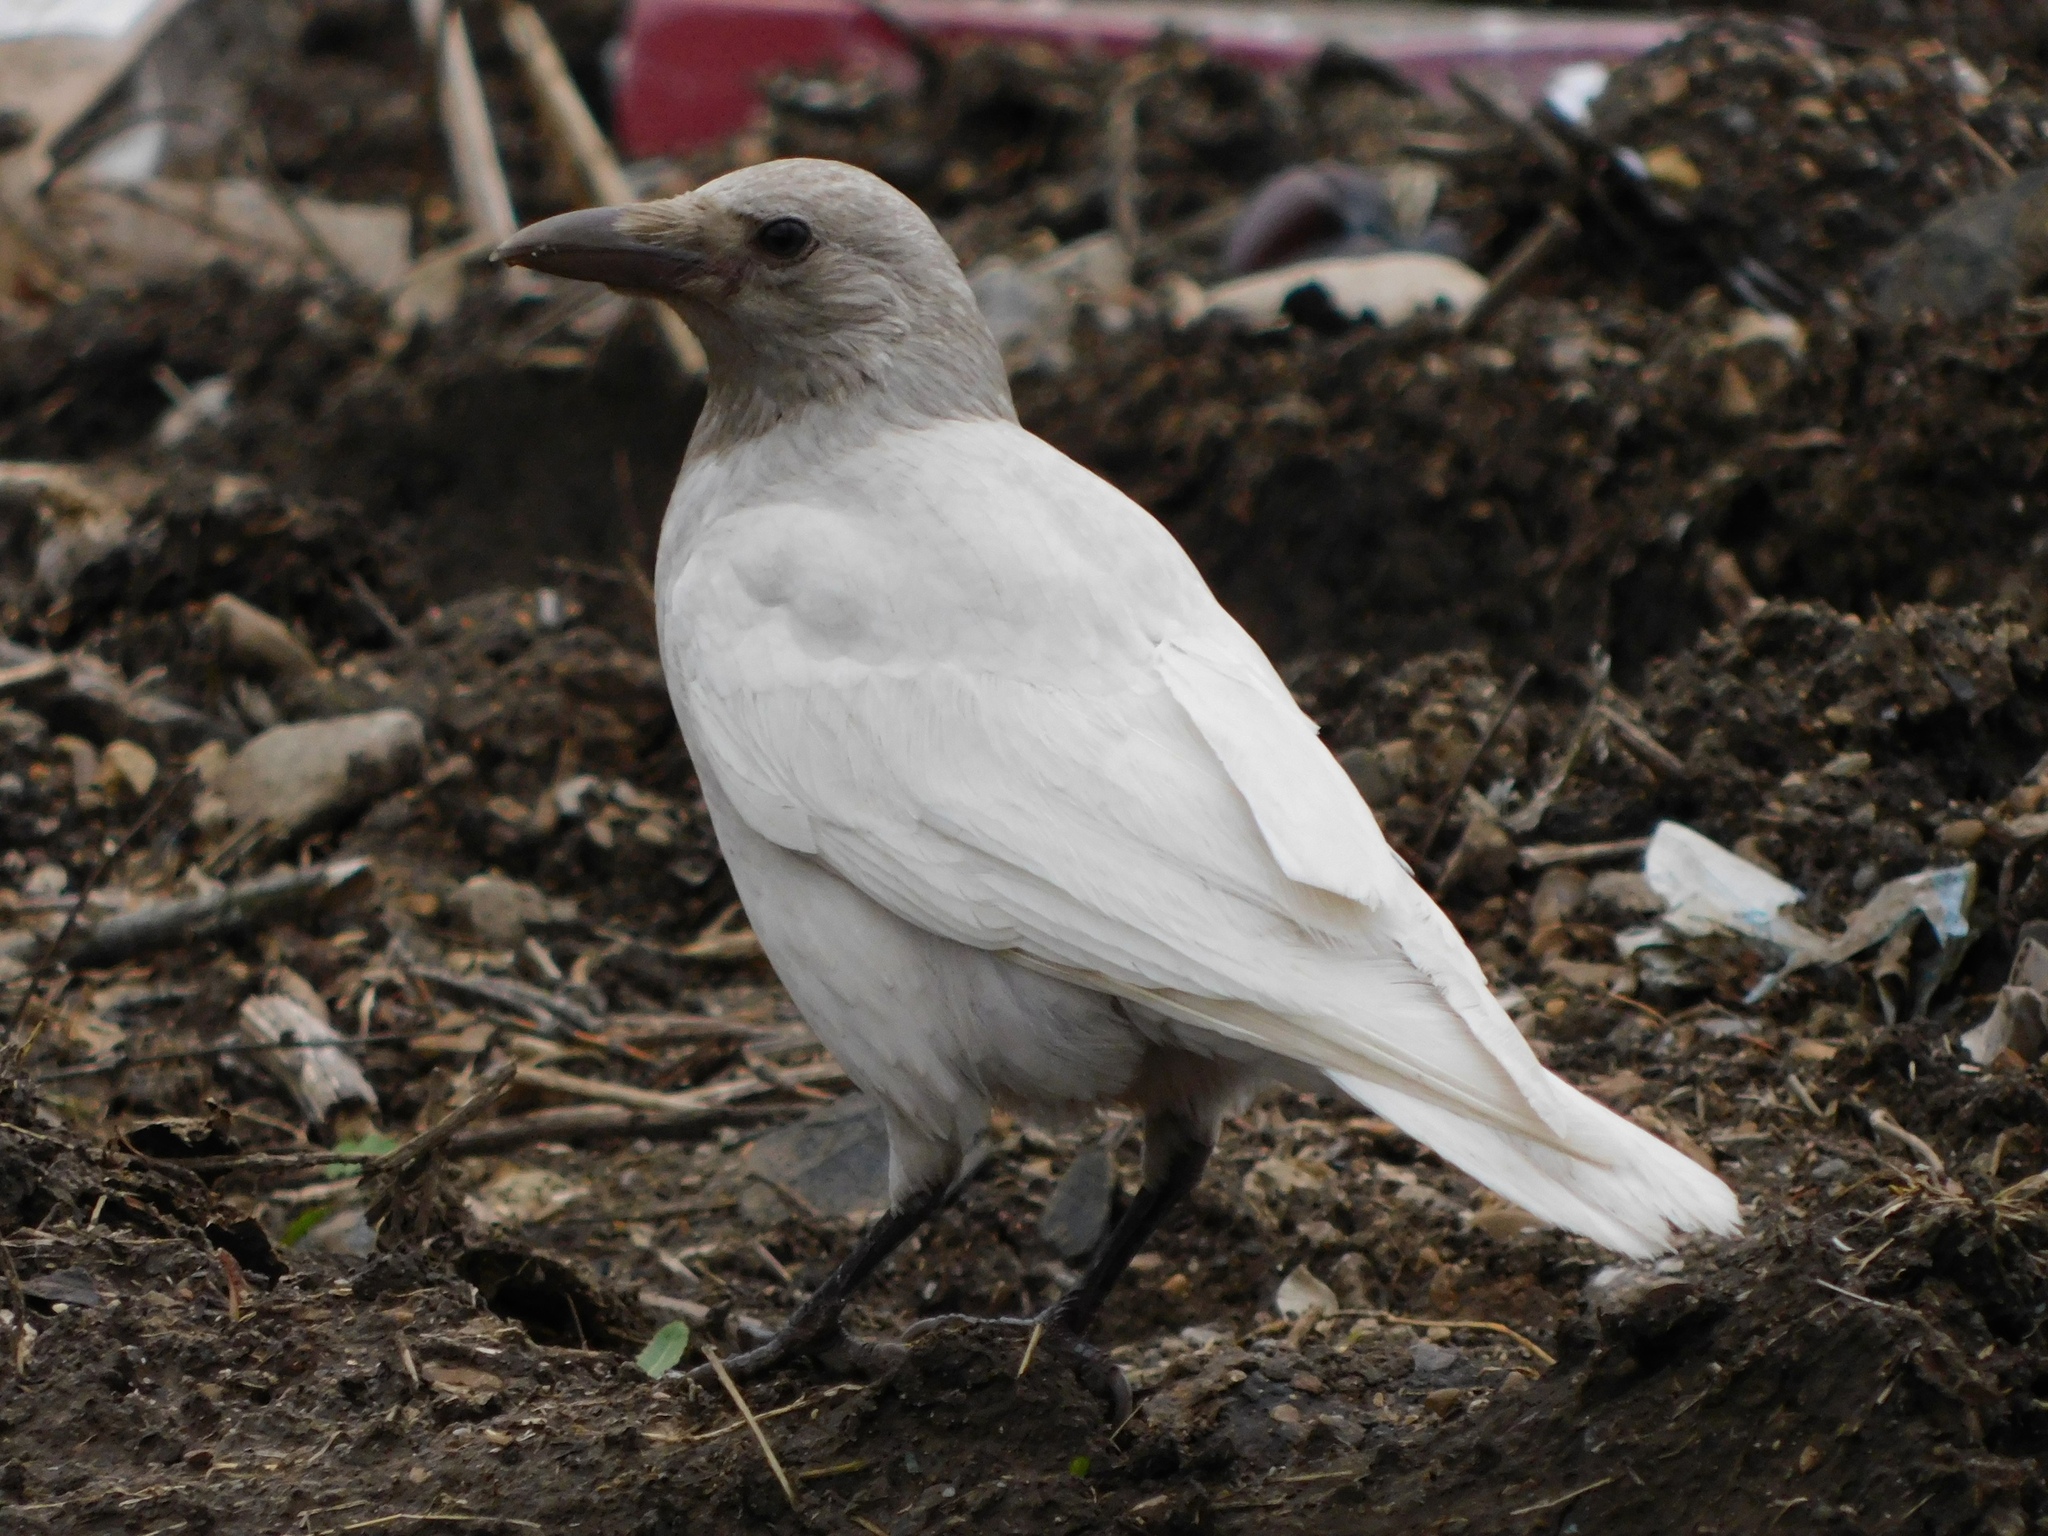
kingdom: Animalia
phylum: Chordata
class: Aves
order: Passeriformes
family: Corvidae
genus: Corvus
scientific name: Corvus cornix
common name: Hooded crow
